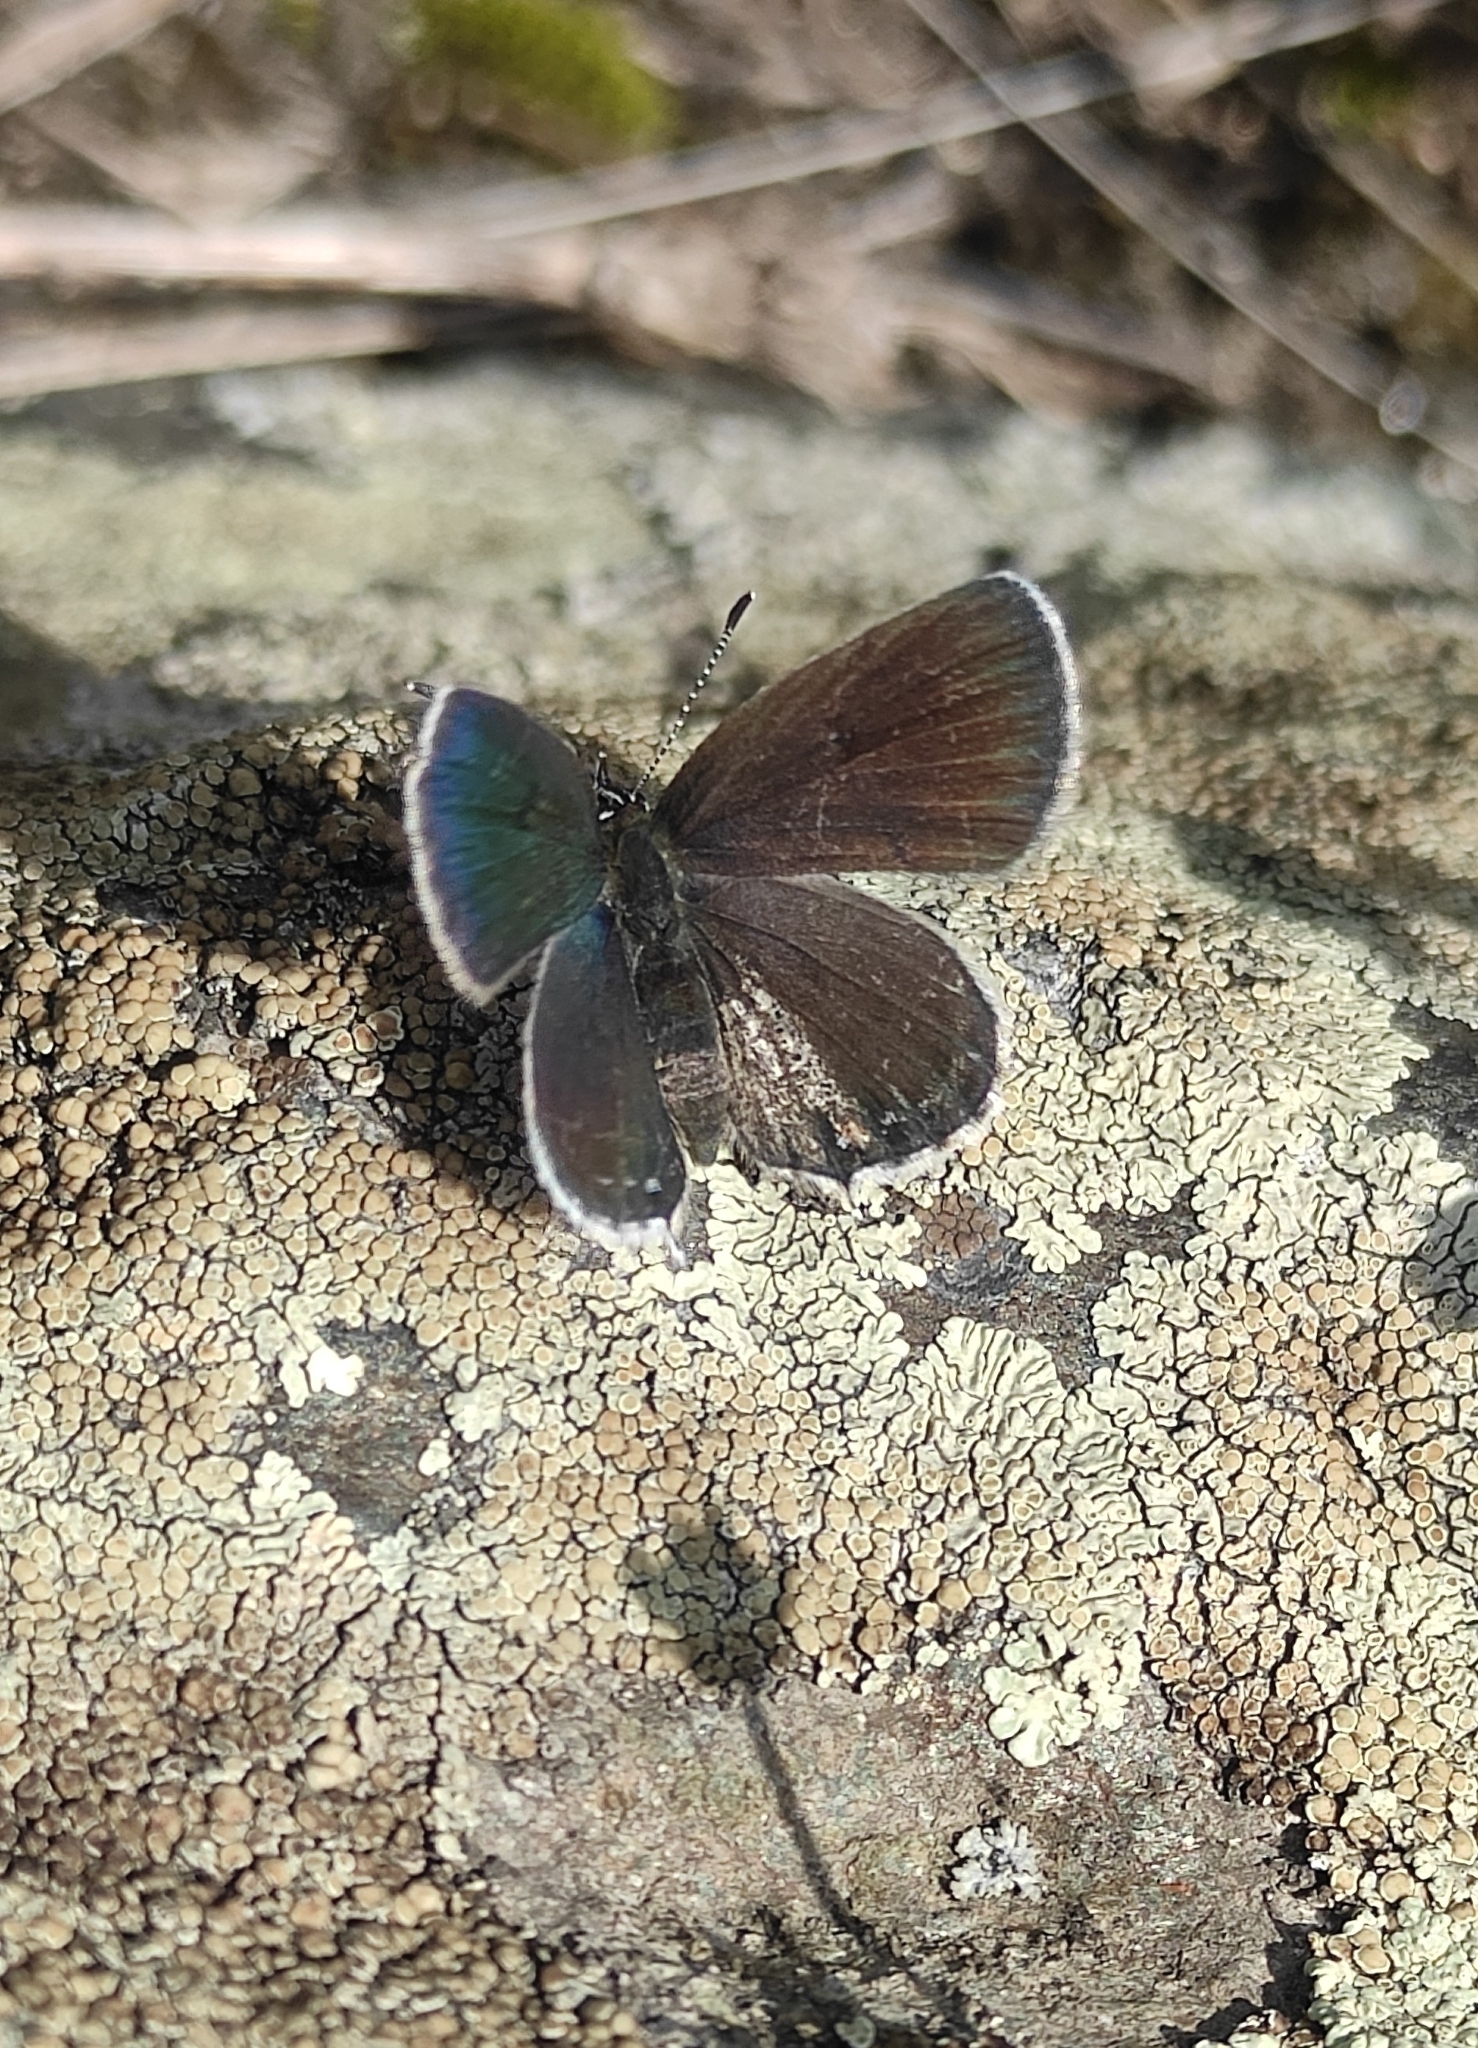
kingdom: Animalia
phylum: Arthropoda
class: Insecta
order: Lepidoptera
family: Lycaenidae
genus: Tongeia
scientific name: Tongeia fischeri
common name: Fischer's blue
